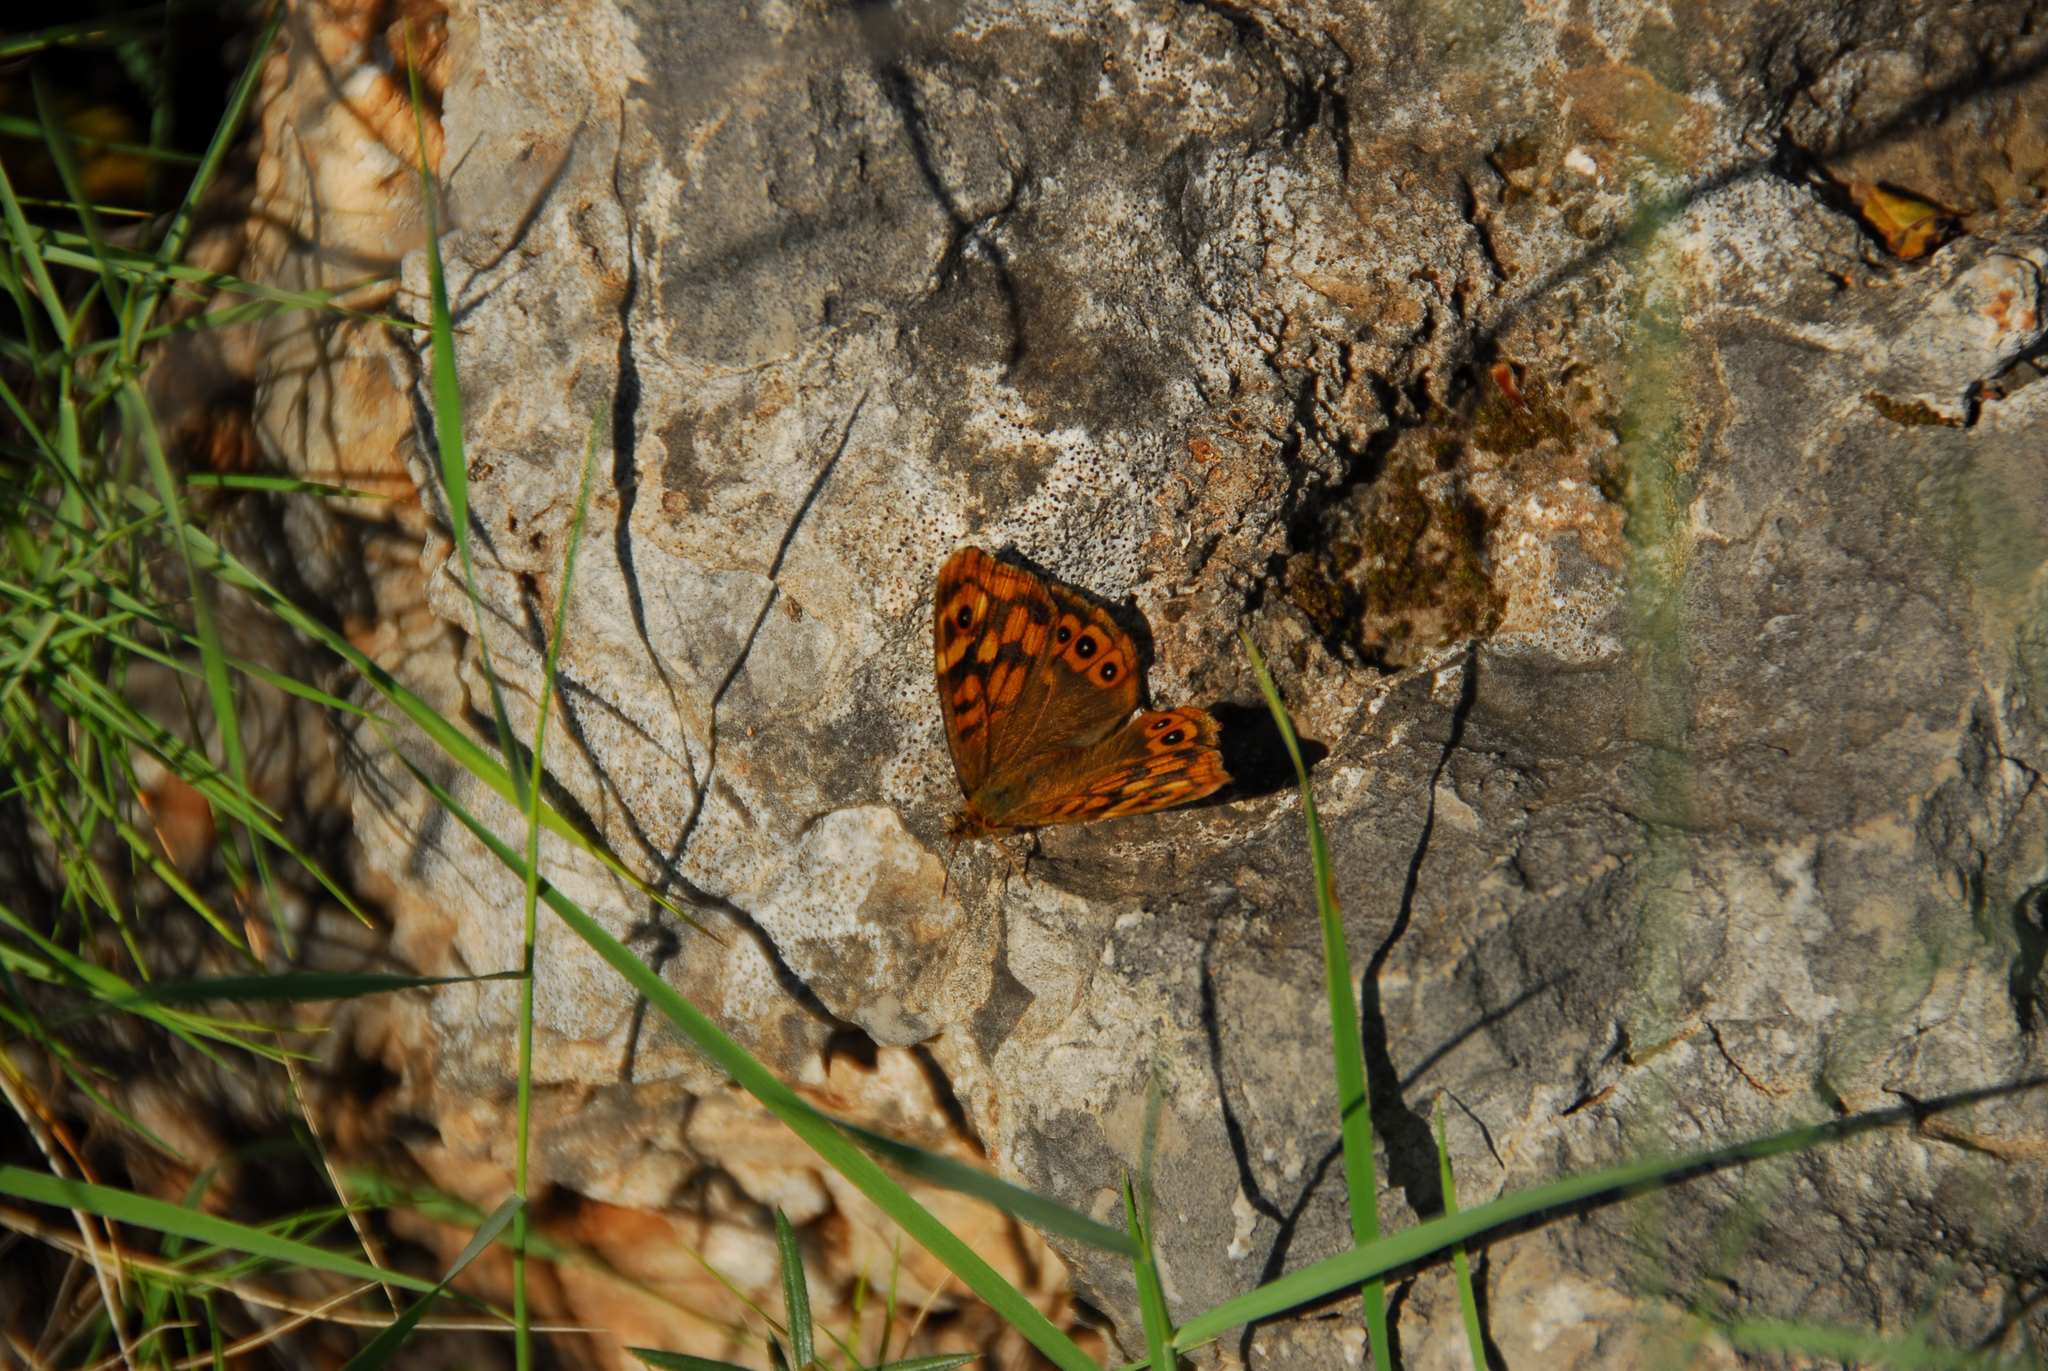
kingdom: Animalia
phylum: Arthropoda
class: Insecta
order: Lepidoptera
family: Nymphalidae
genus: Pararge
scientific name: Pararge aegeria
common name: Speckled wood
